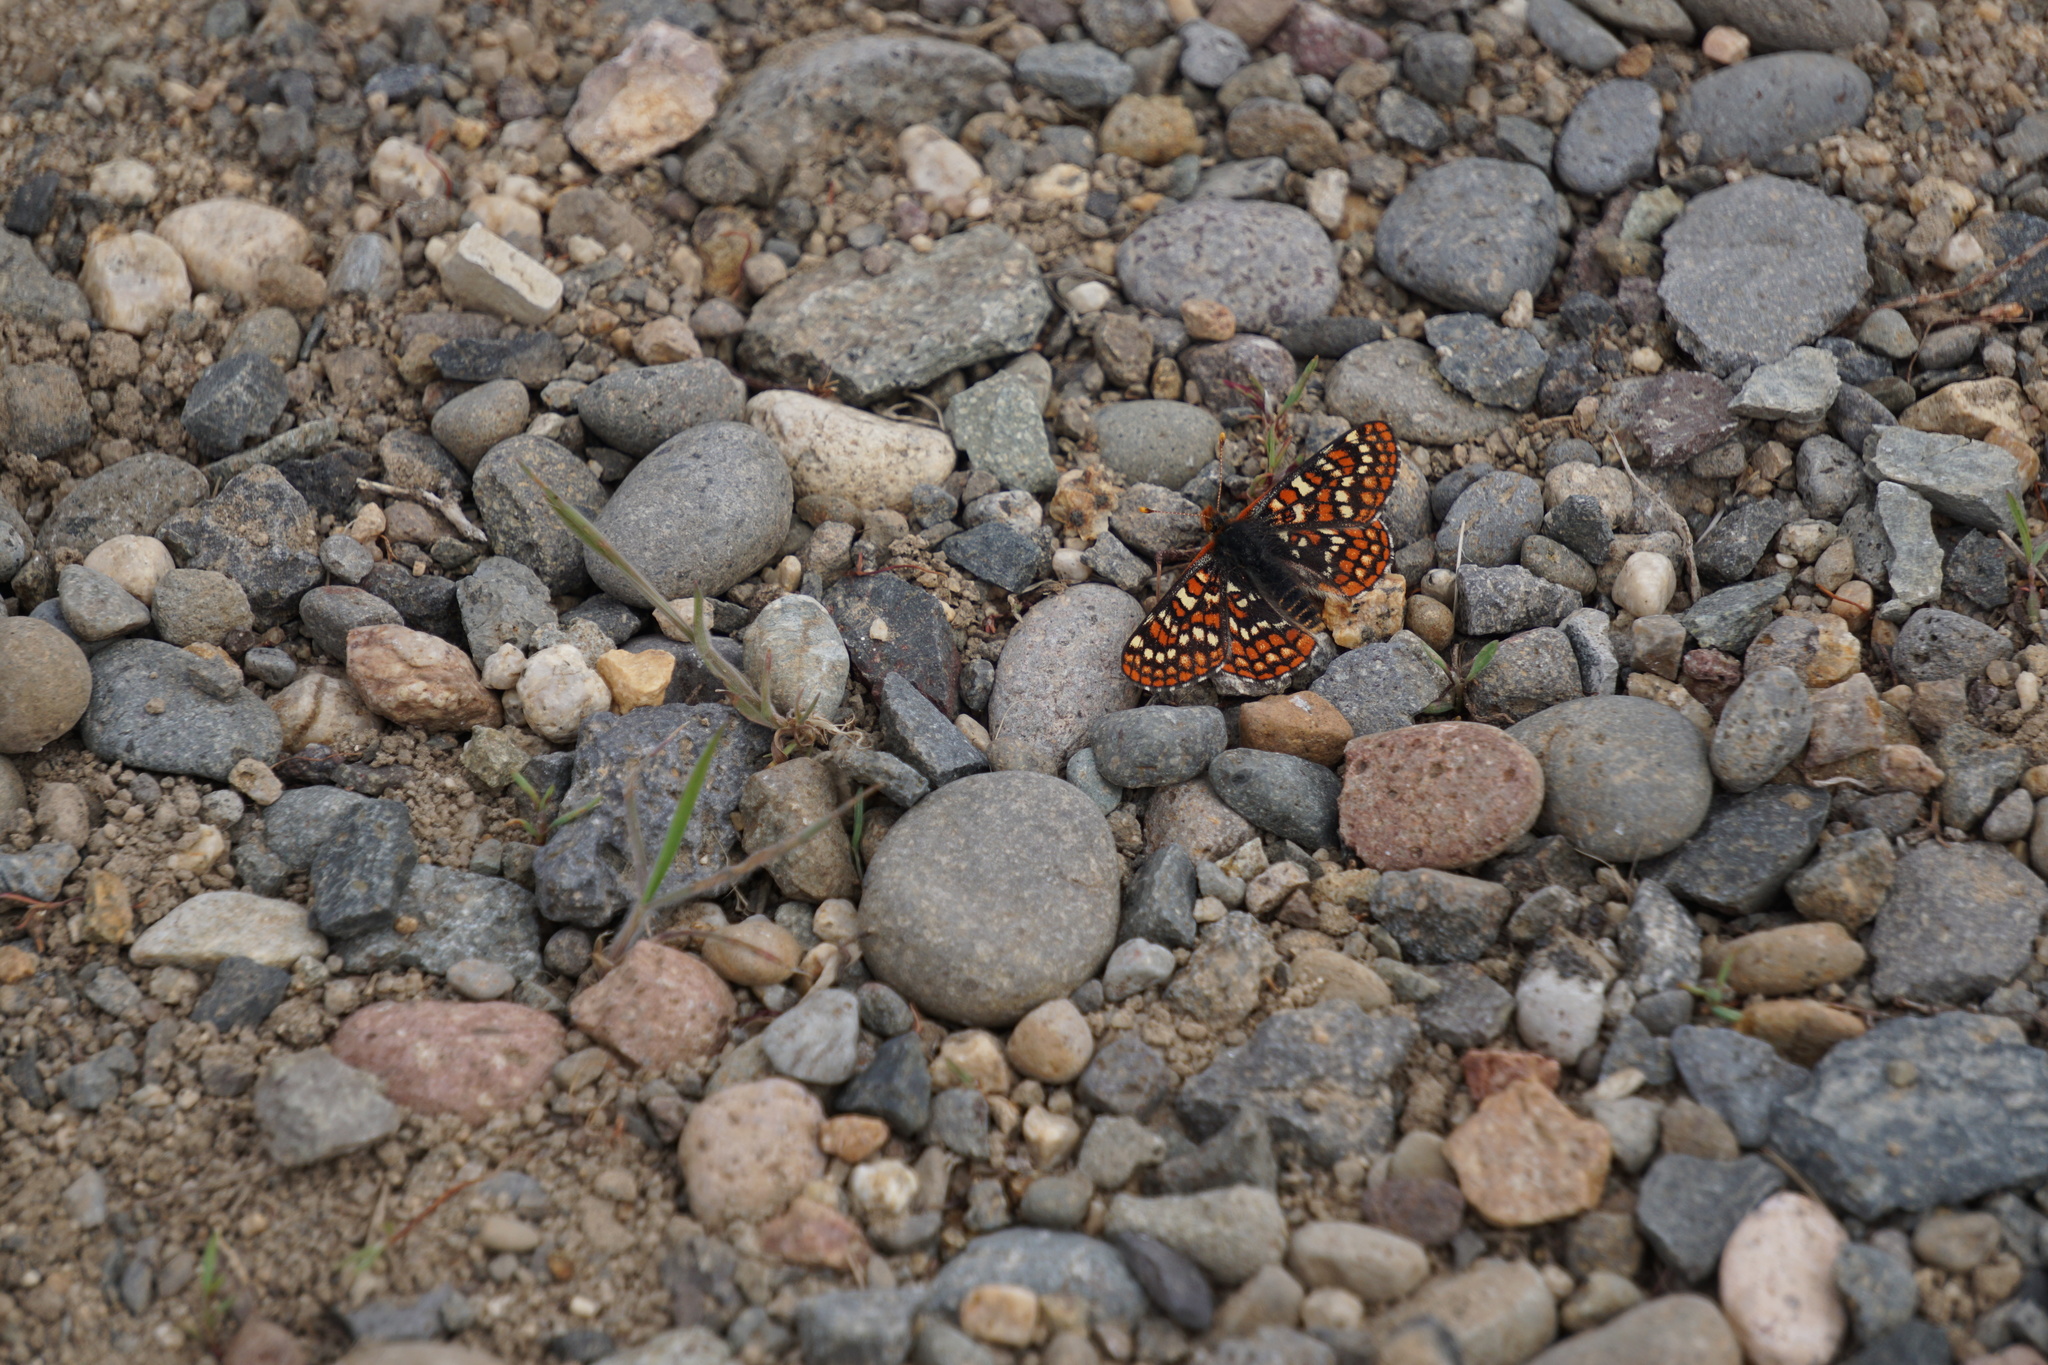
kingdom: Animalia
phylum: Arthropoda
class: Insecta
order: Lepidoptera
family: Nymphalidae
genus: Occidryas
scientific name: Occidryas editha
